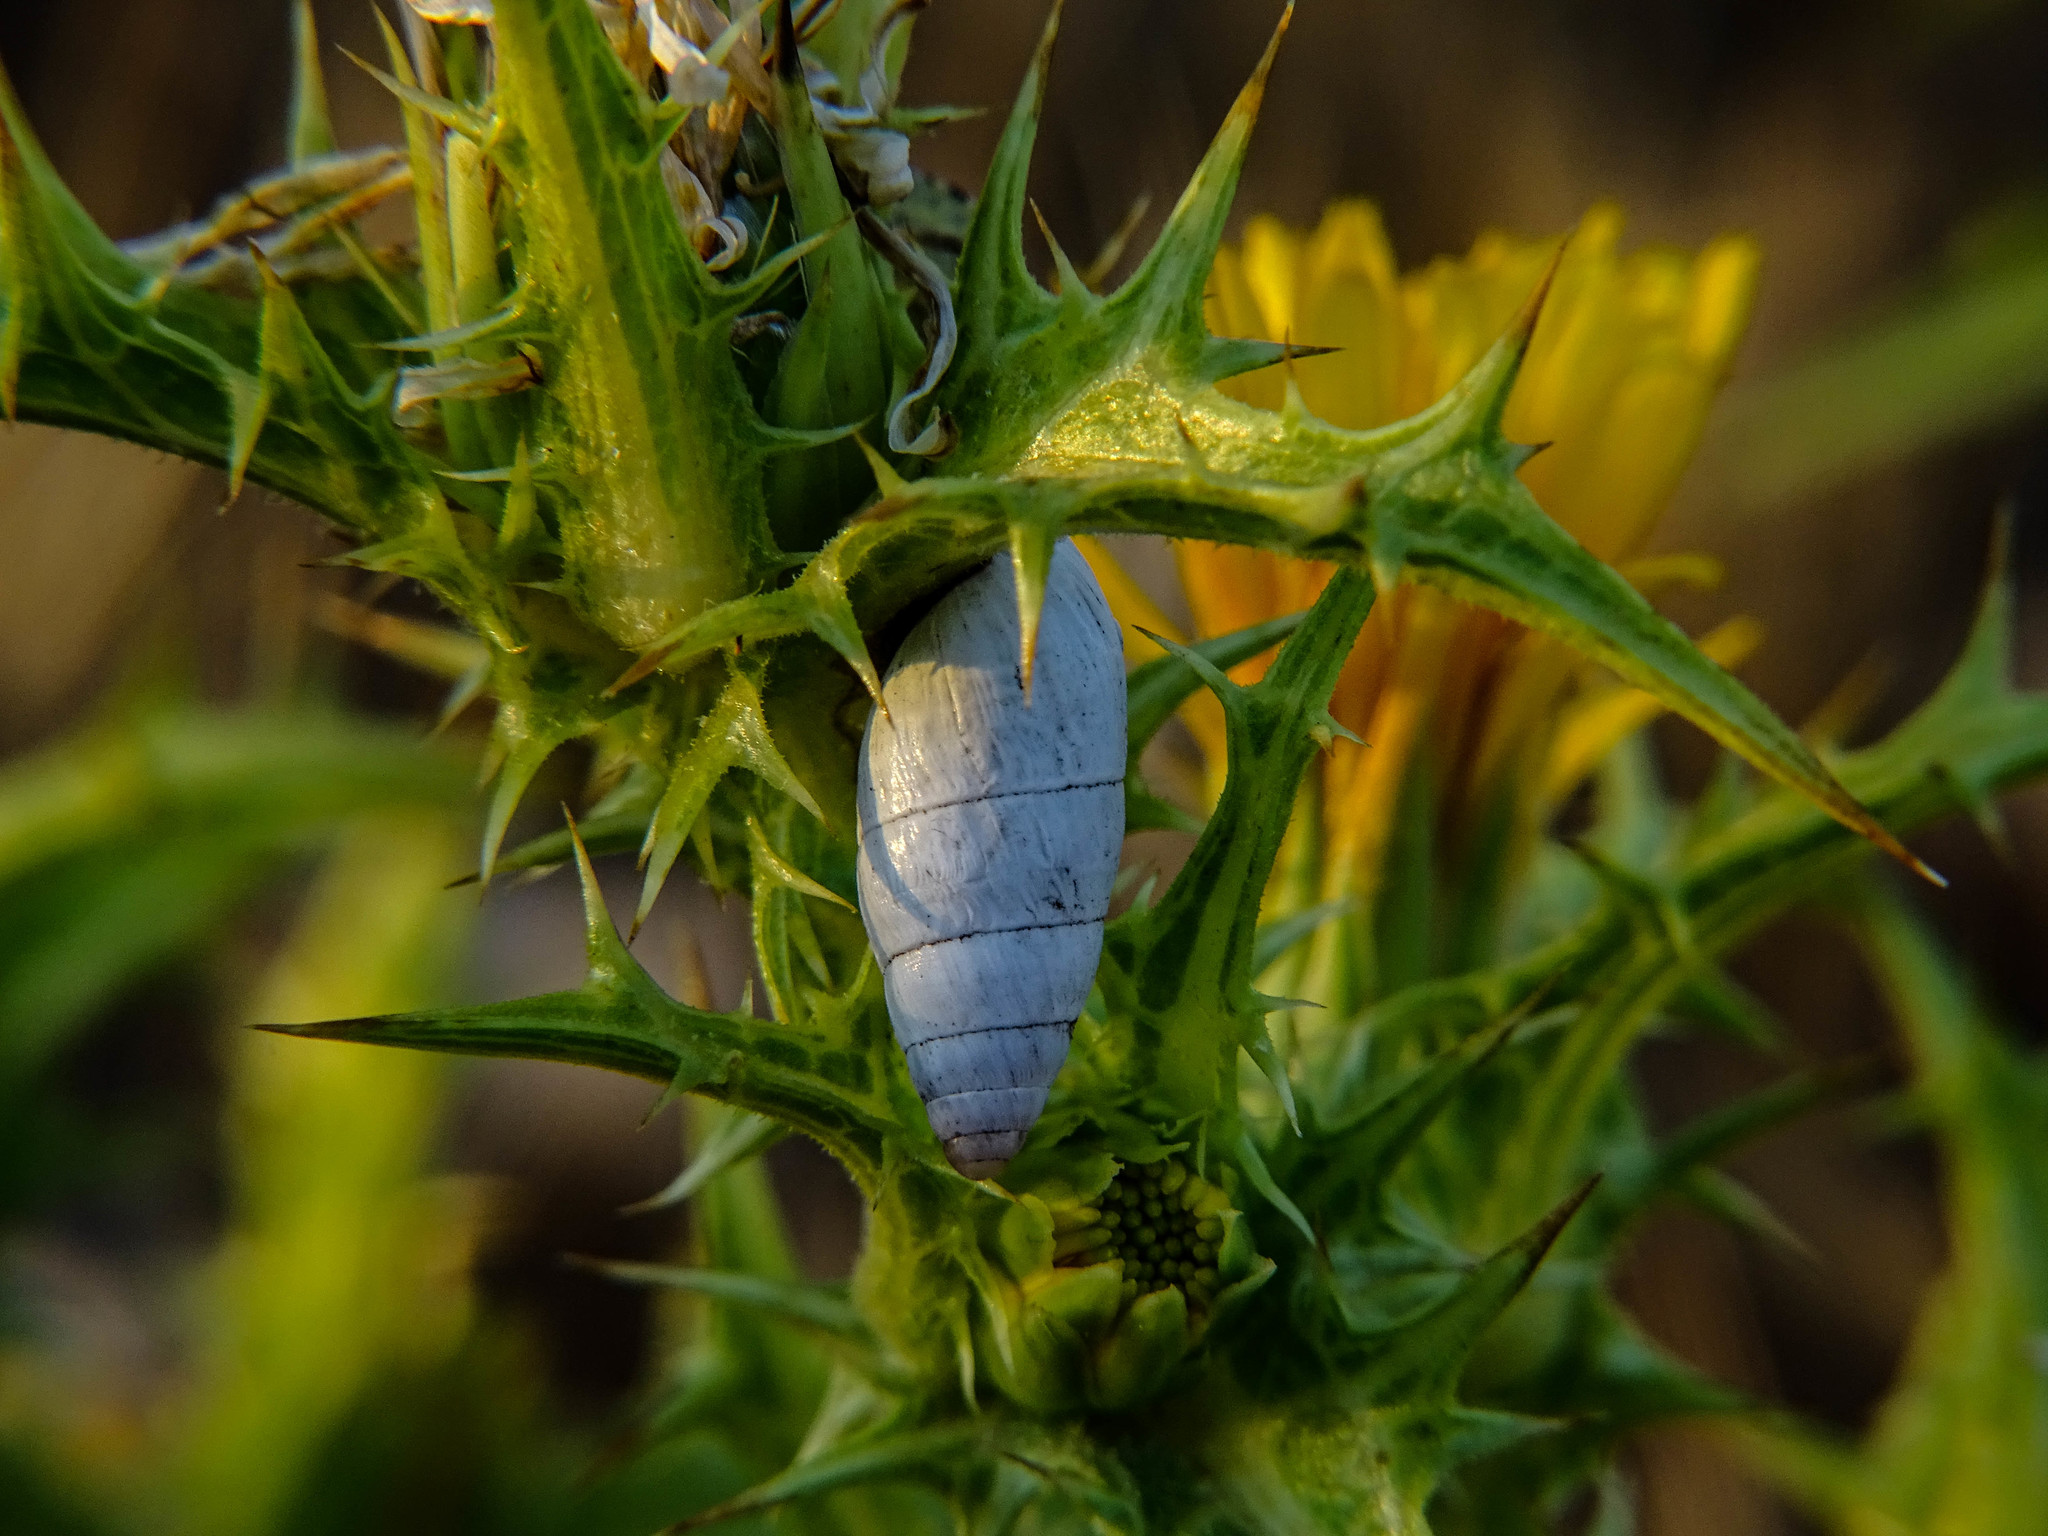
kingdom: Animalia
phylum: Mollusca
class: Gastropoda
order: Stylommatophora
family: Enidae
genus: Zebrina
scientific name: Zebrina fasciolata
